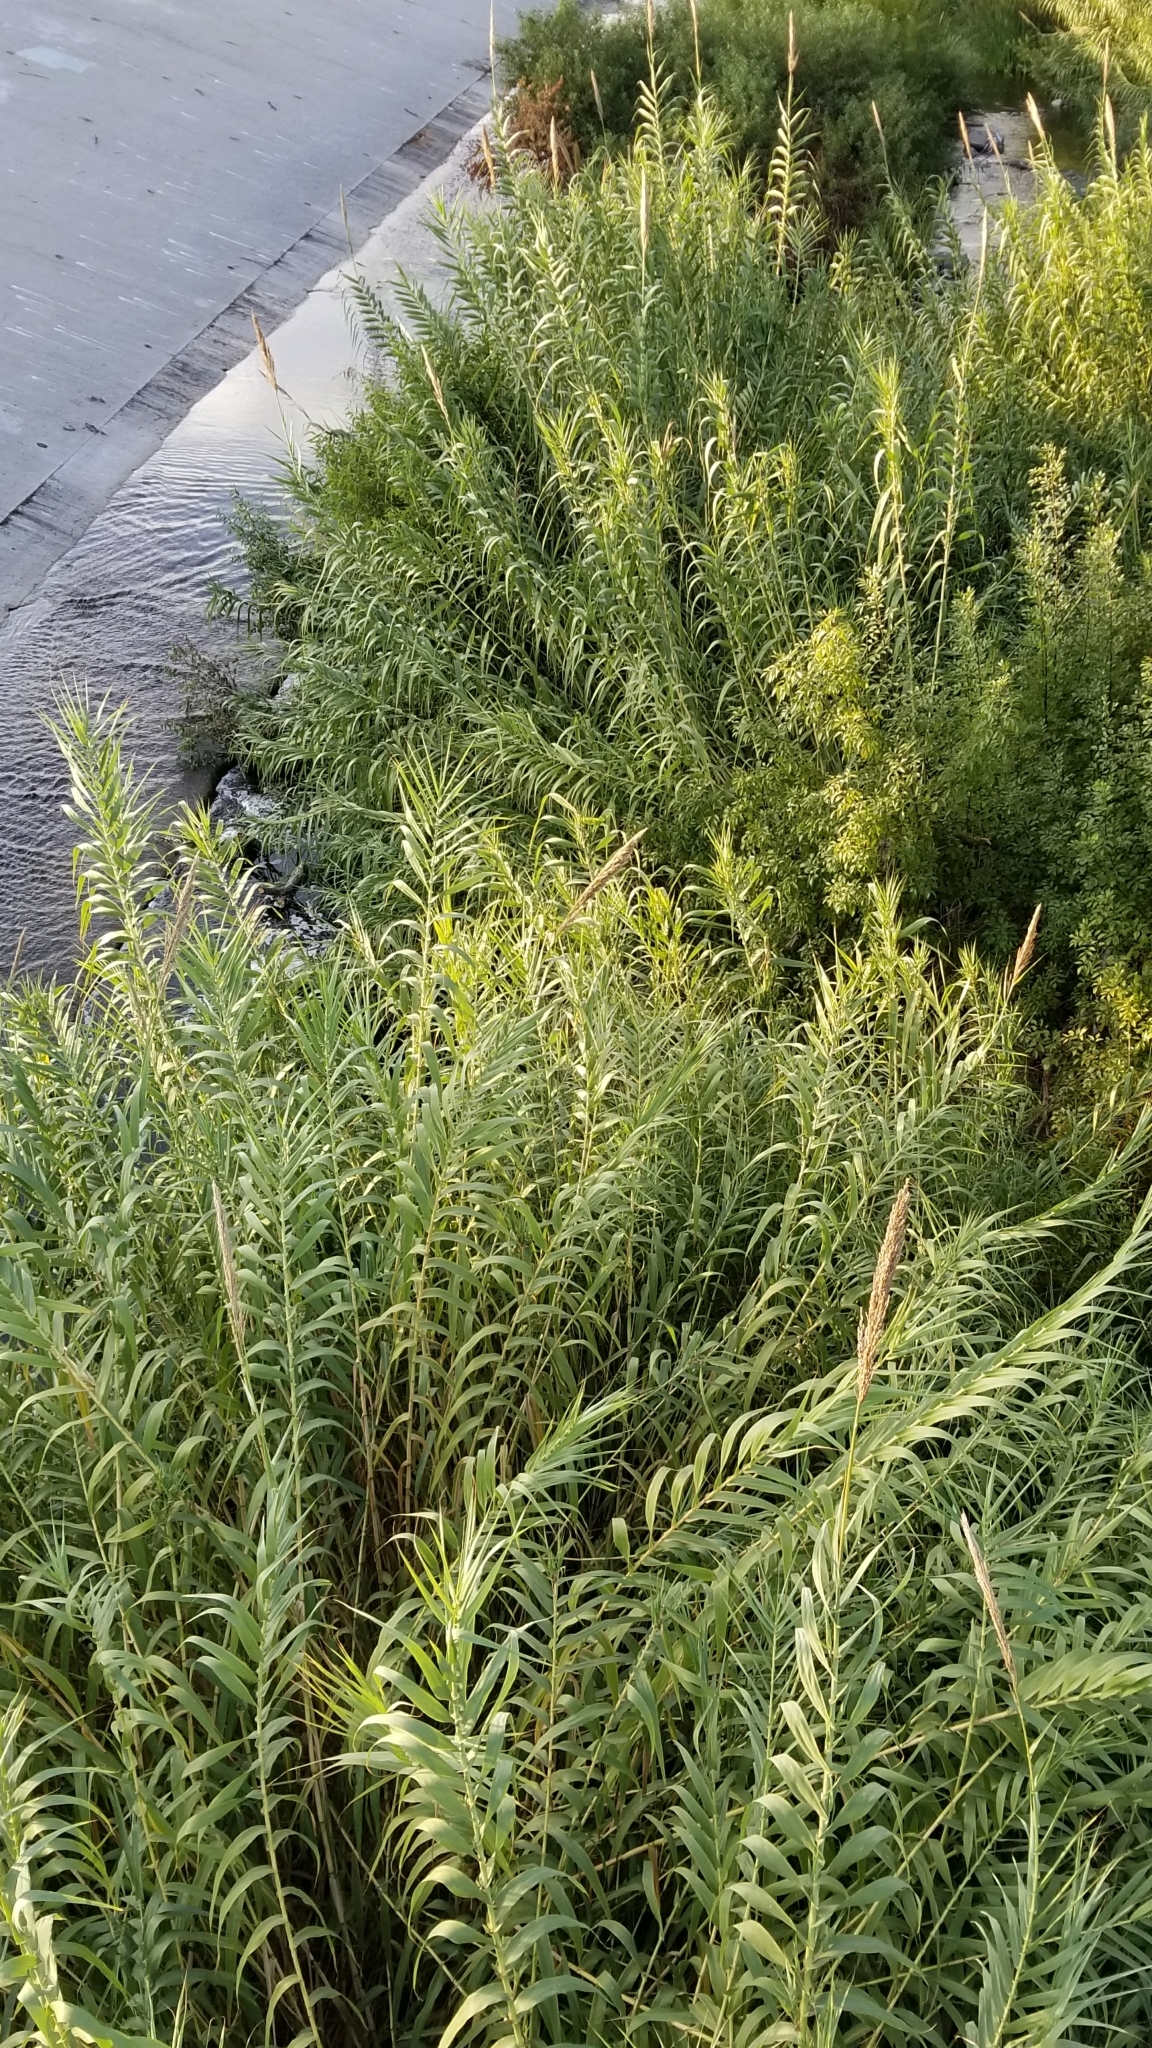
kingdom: Plantae
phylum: Tracheophyta
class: Liliopsida
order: Poales
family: Poaceae
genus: Arundo
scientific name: Arundo donax
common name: Giant reed
